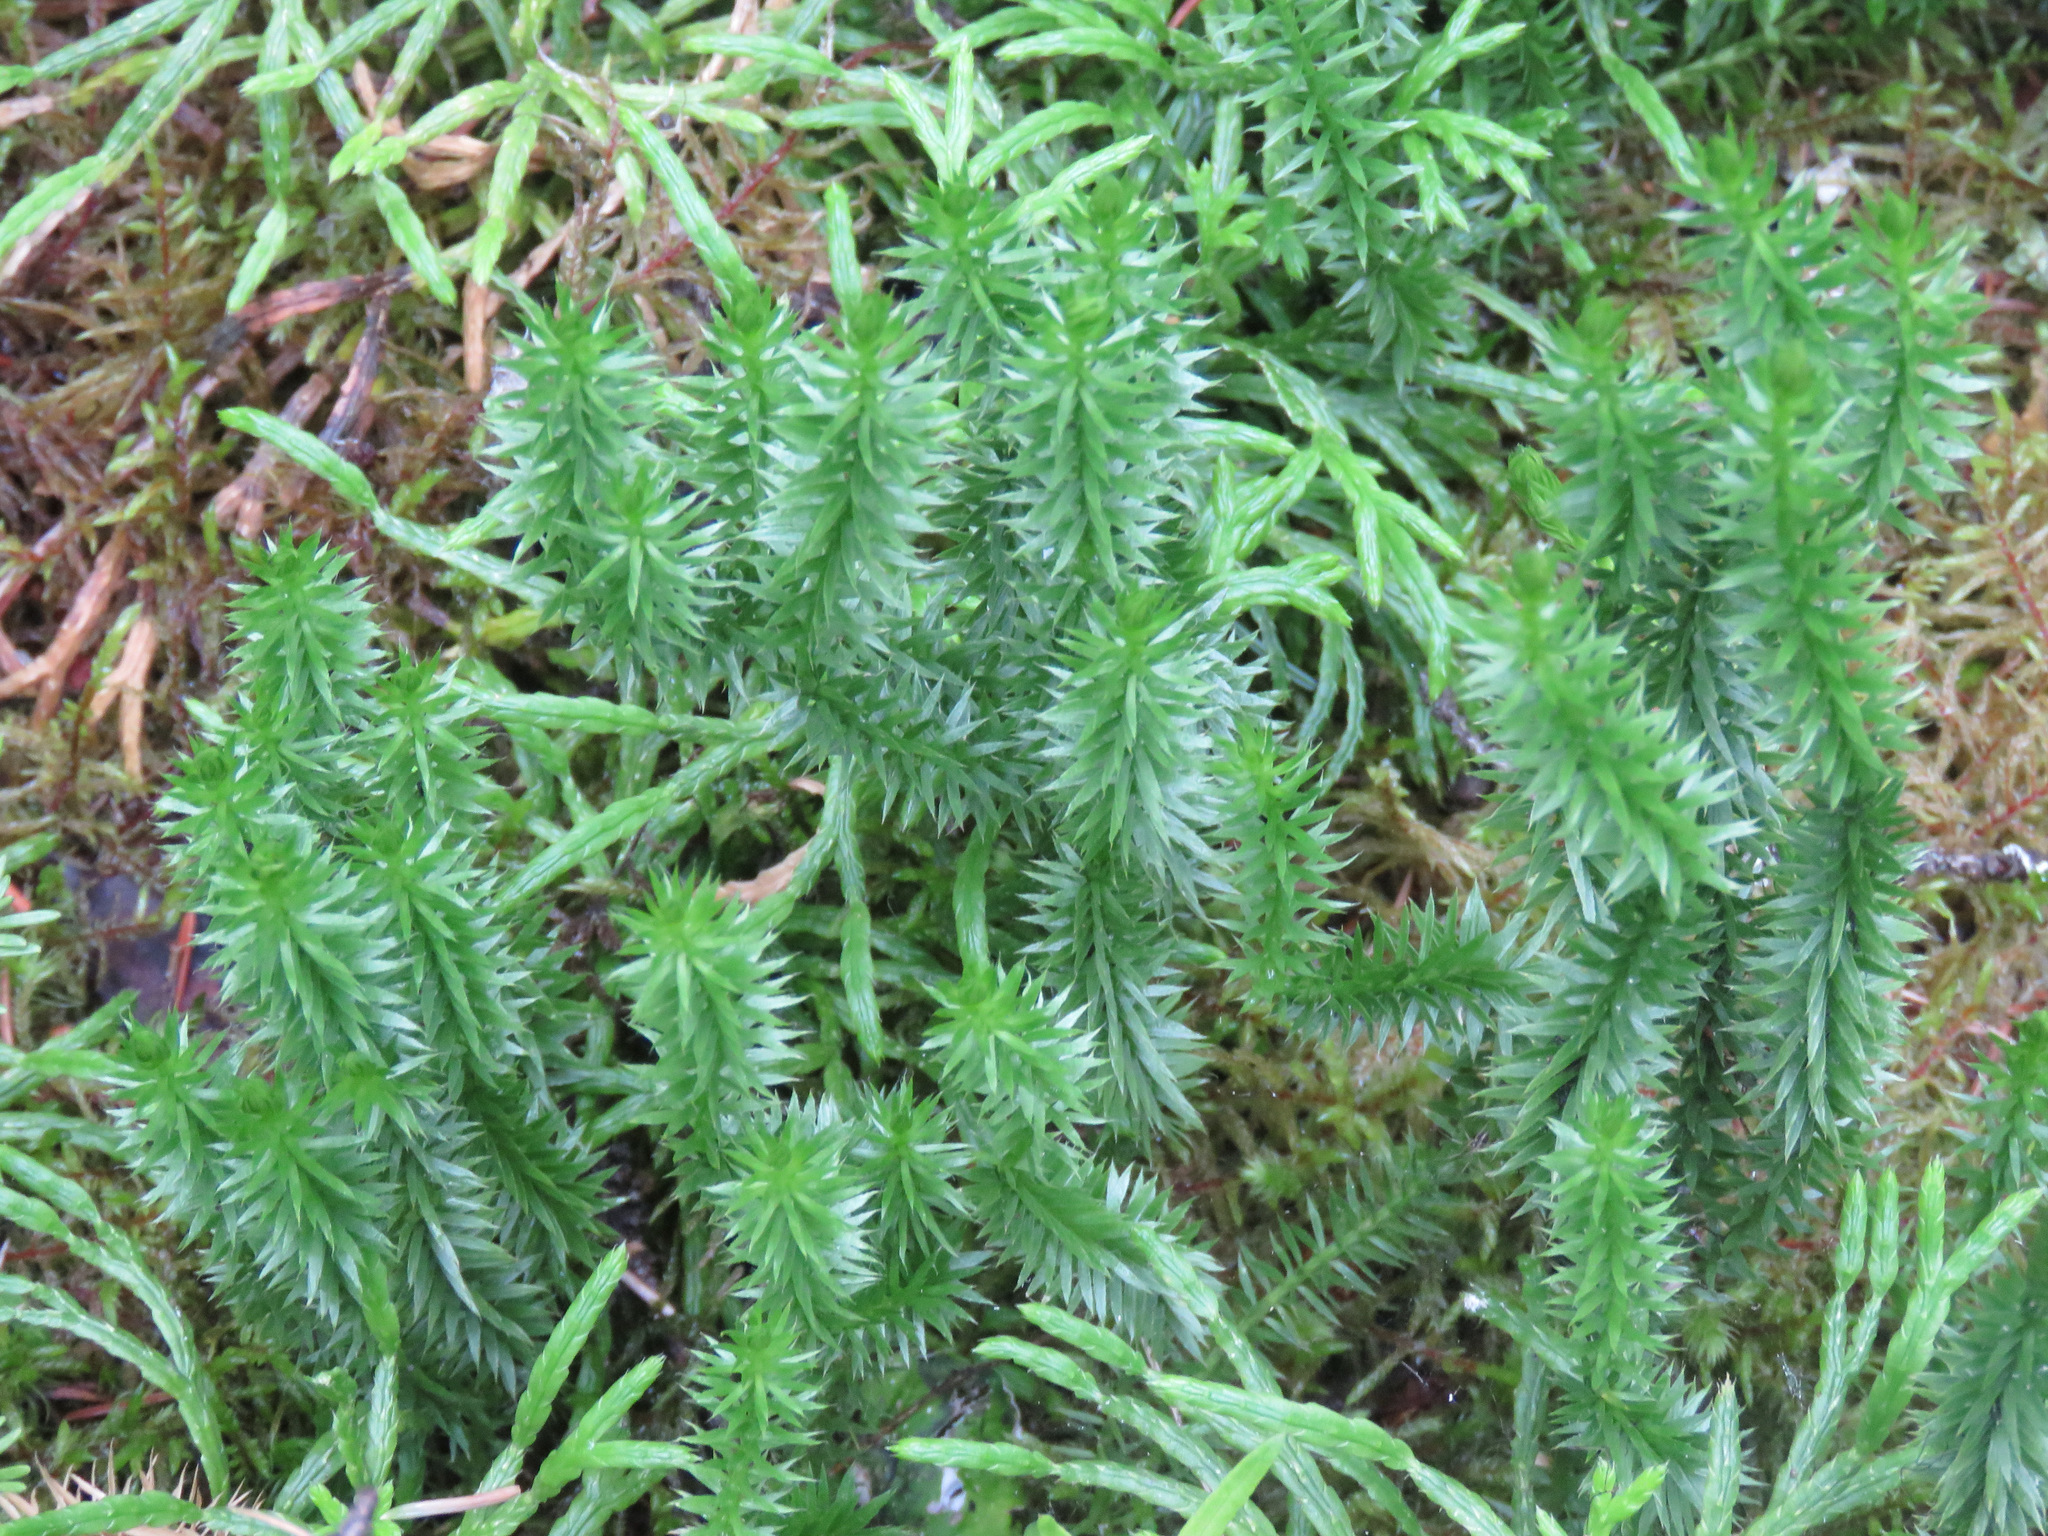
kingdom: Plantae
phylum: Tracheophyta
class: Lycopodiopsida
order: Lycopodiales
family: Lycopodiaceae
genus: Spinulum
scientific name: Spinulum annotinum
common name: Interrupted club-moss
